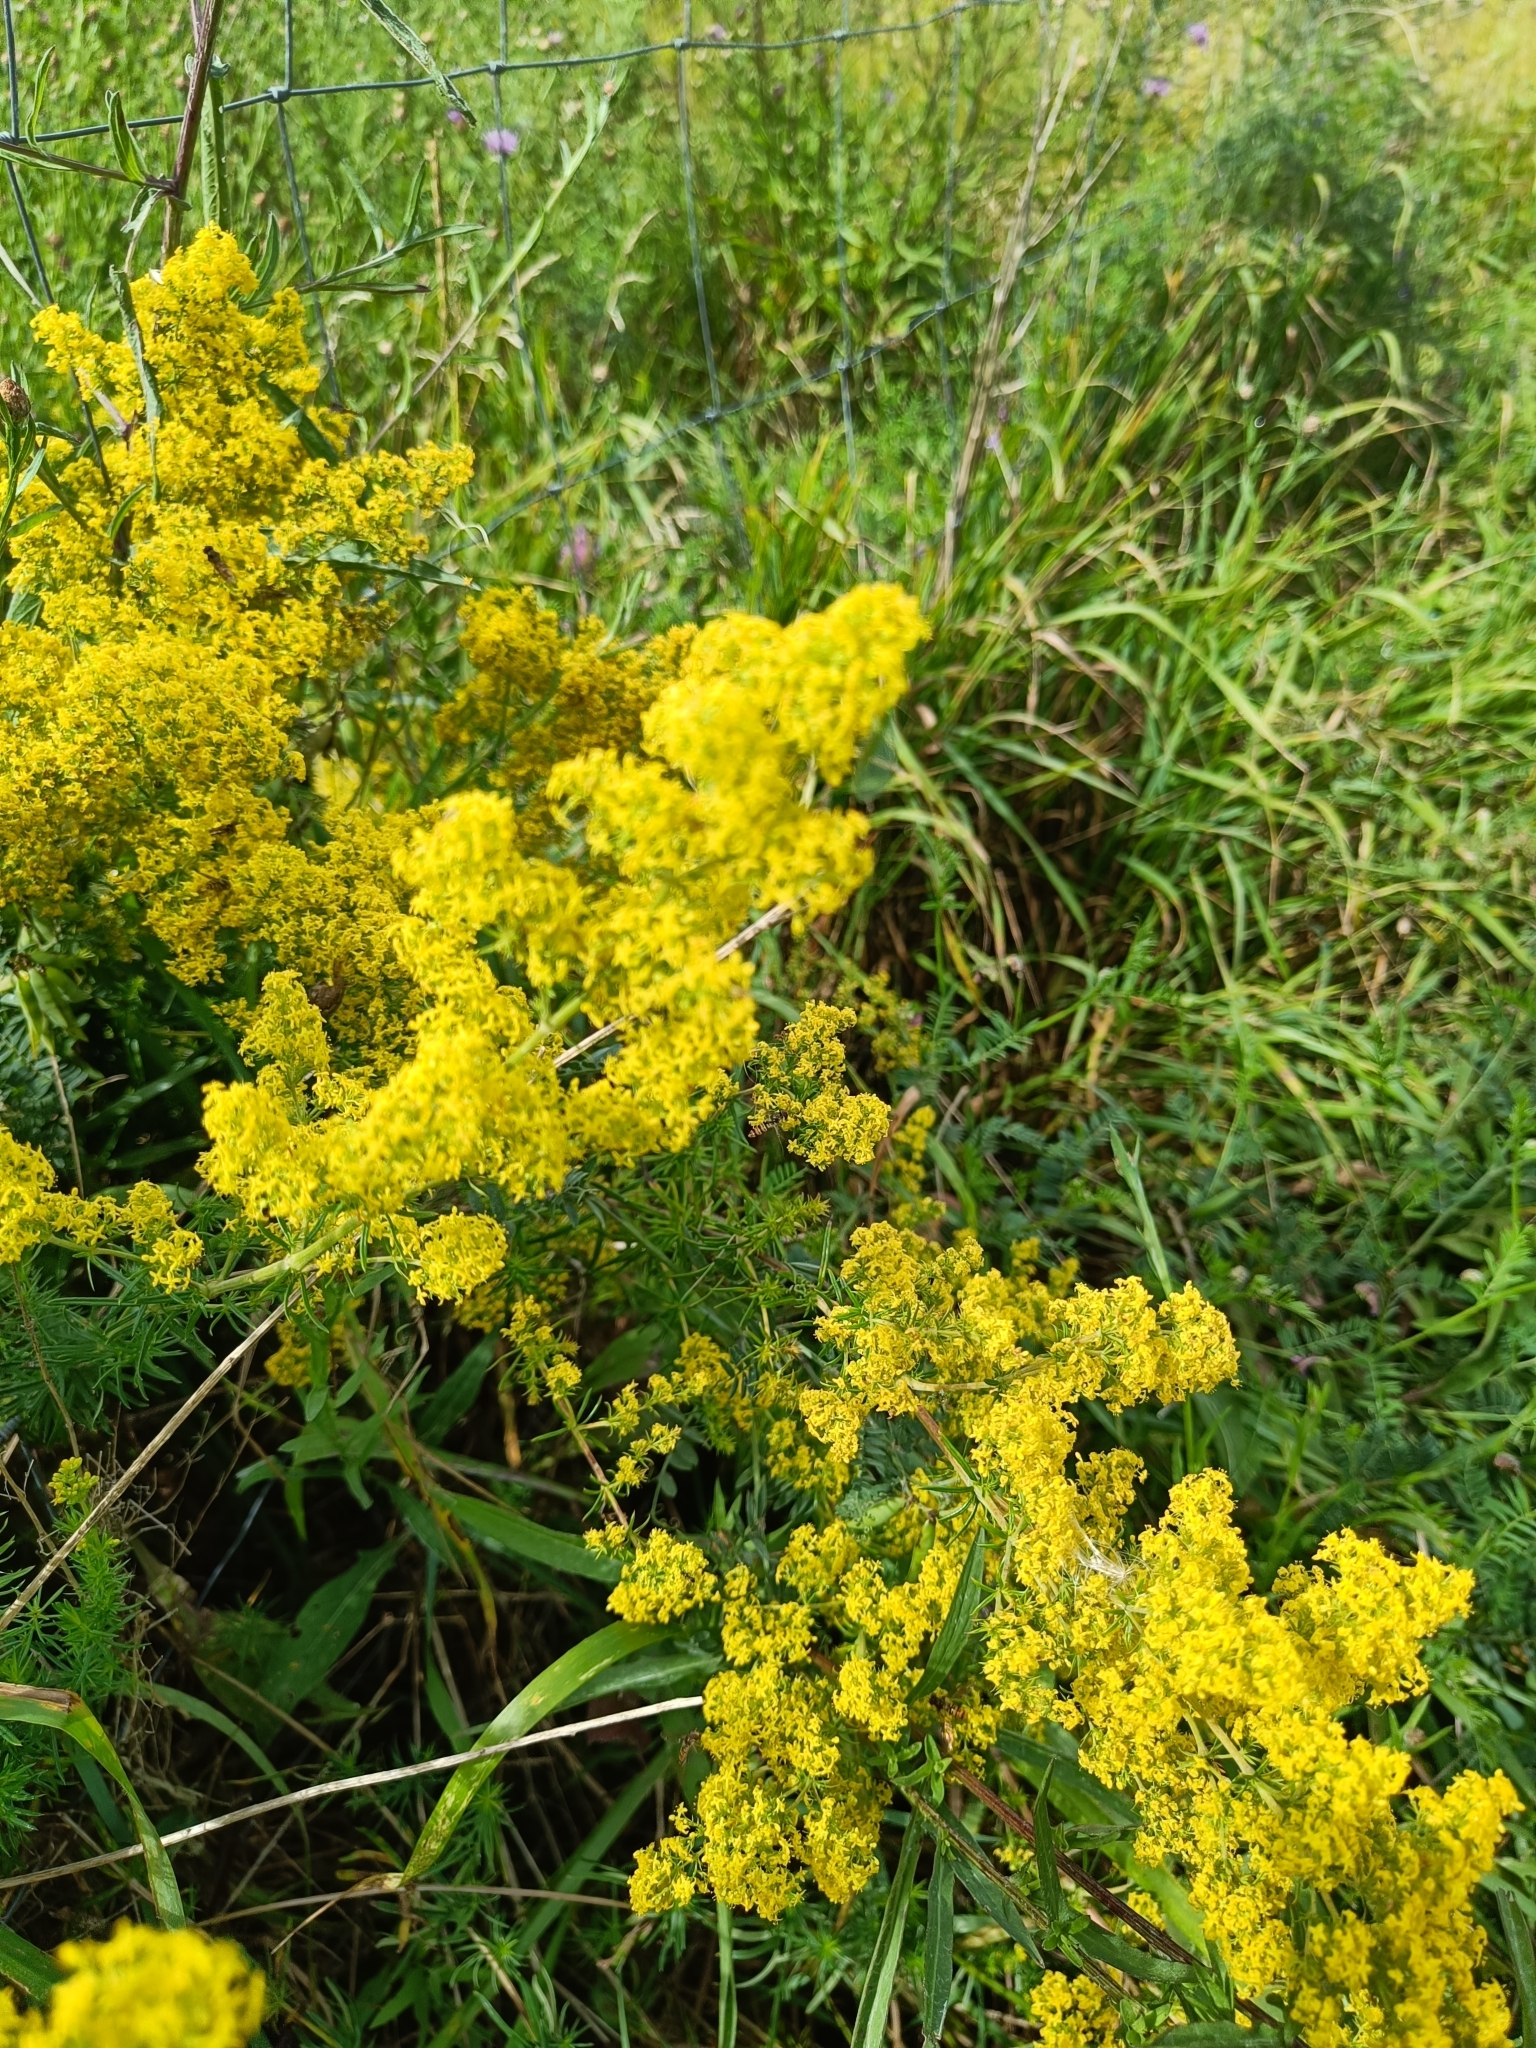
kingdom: Plantae
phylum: Tracheophyta
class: Magnoliopsida
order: Gentianales
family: Rubiaceae
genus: Galium
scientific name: Galium verum
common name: Lady's bedstraw
